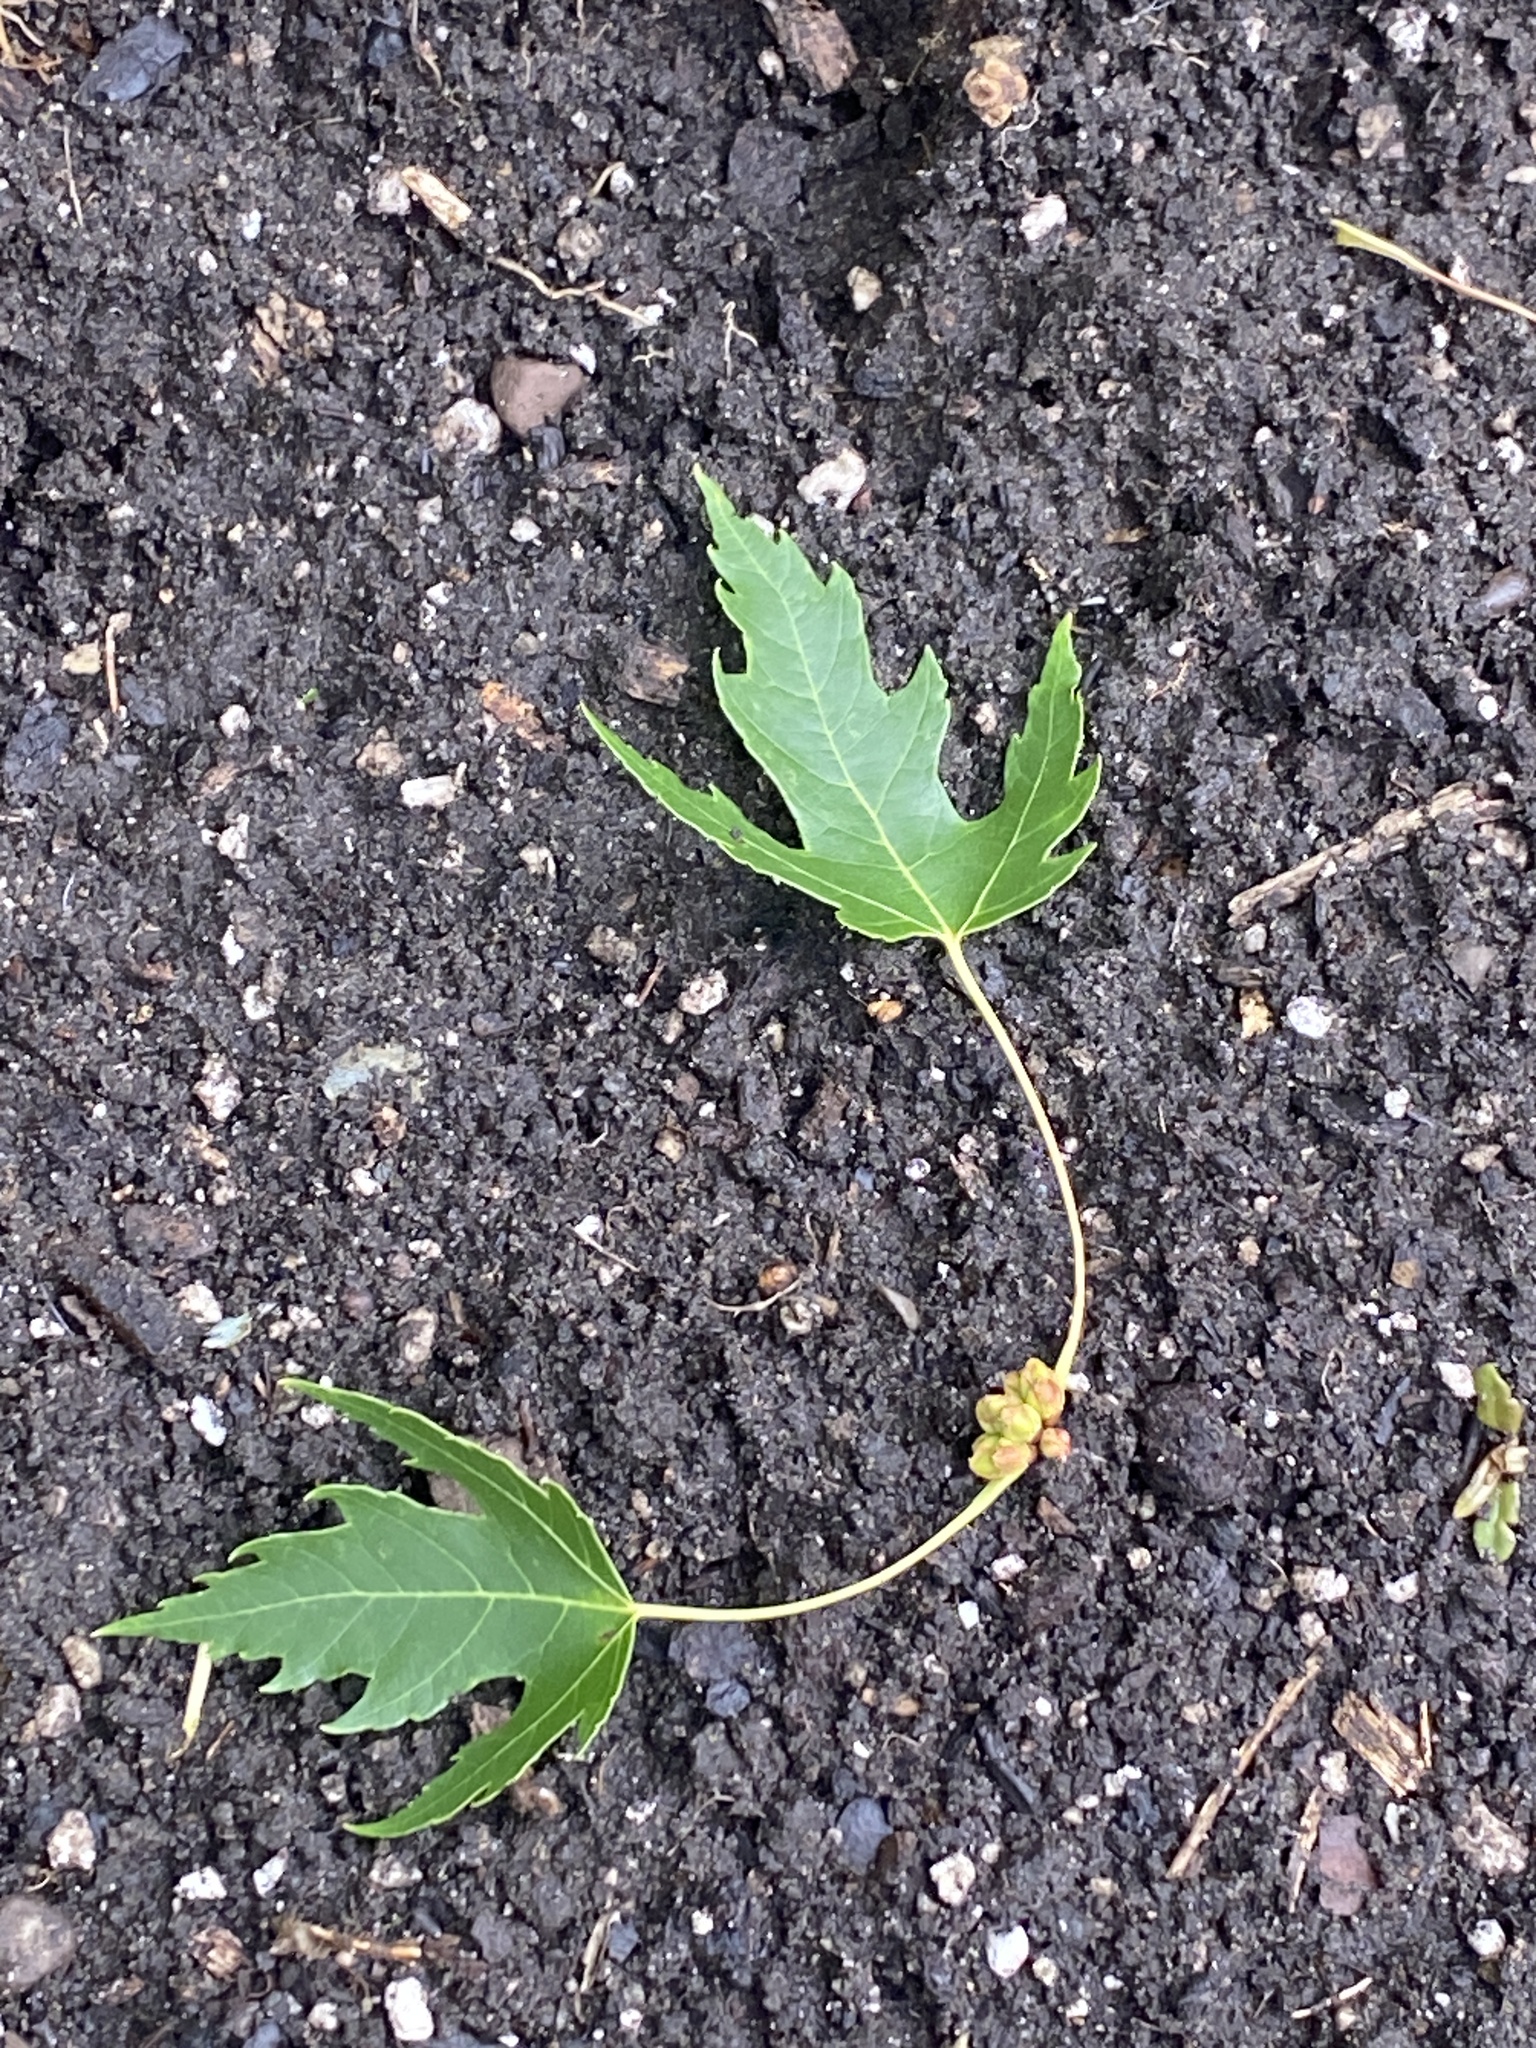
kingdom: Plantae
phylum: Tracheophyta
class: Magnoliopsida
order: Sapindales
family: Sapindaceae
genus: Acer
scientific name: Acer saccharinum
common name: Silver maple
